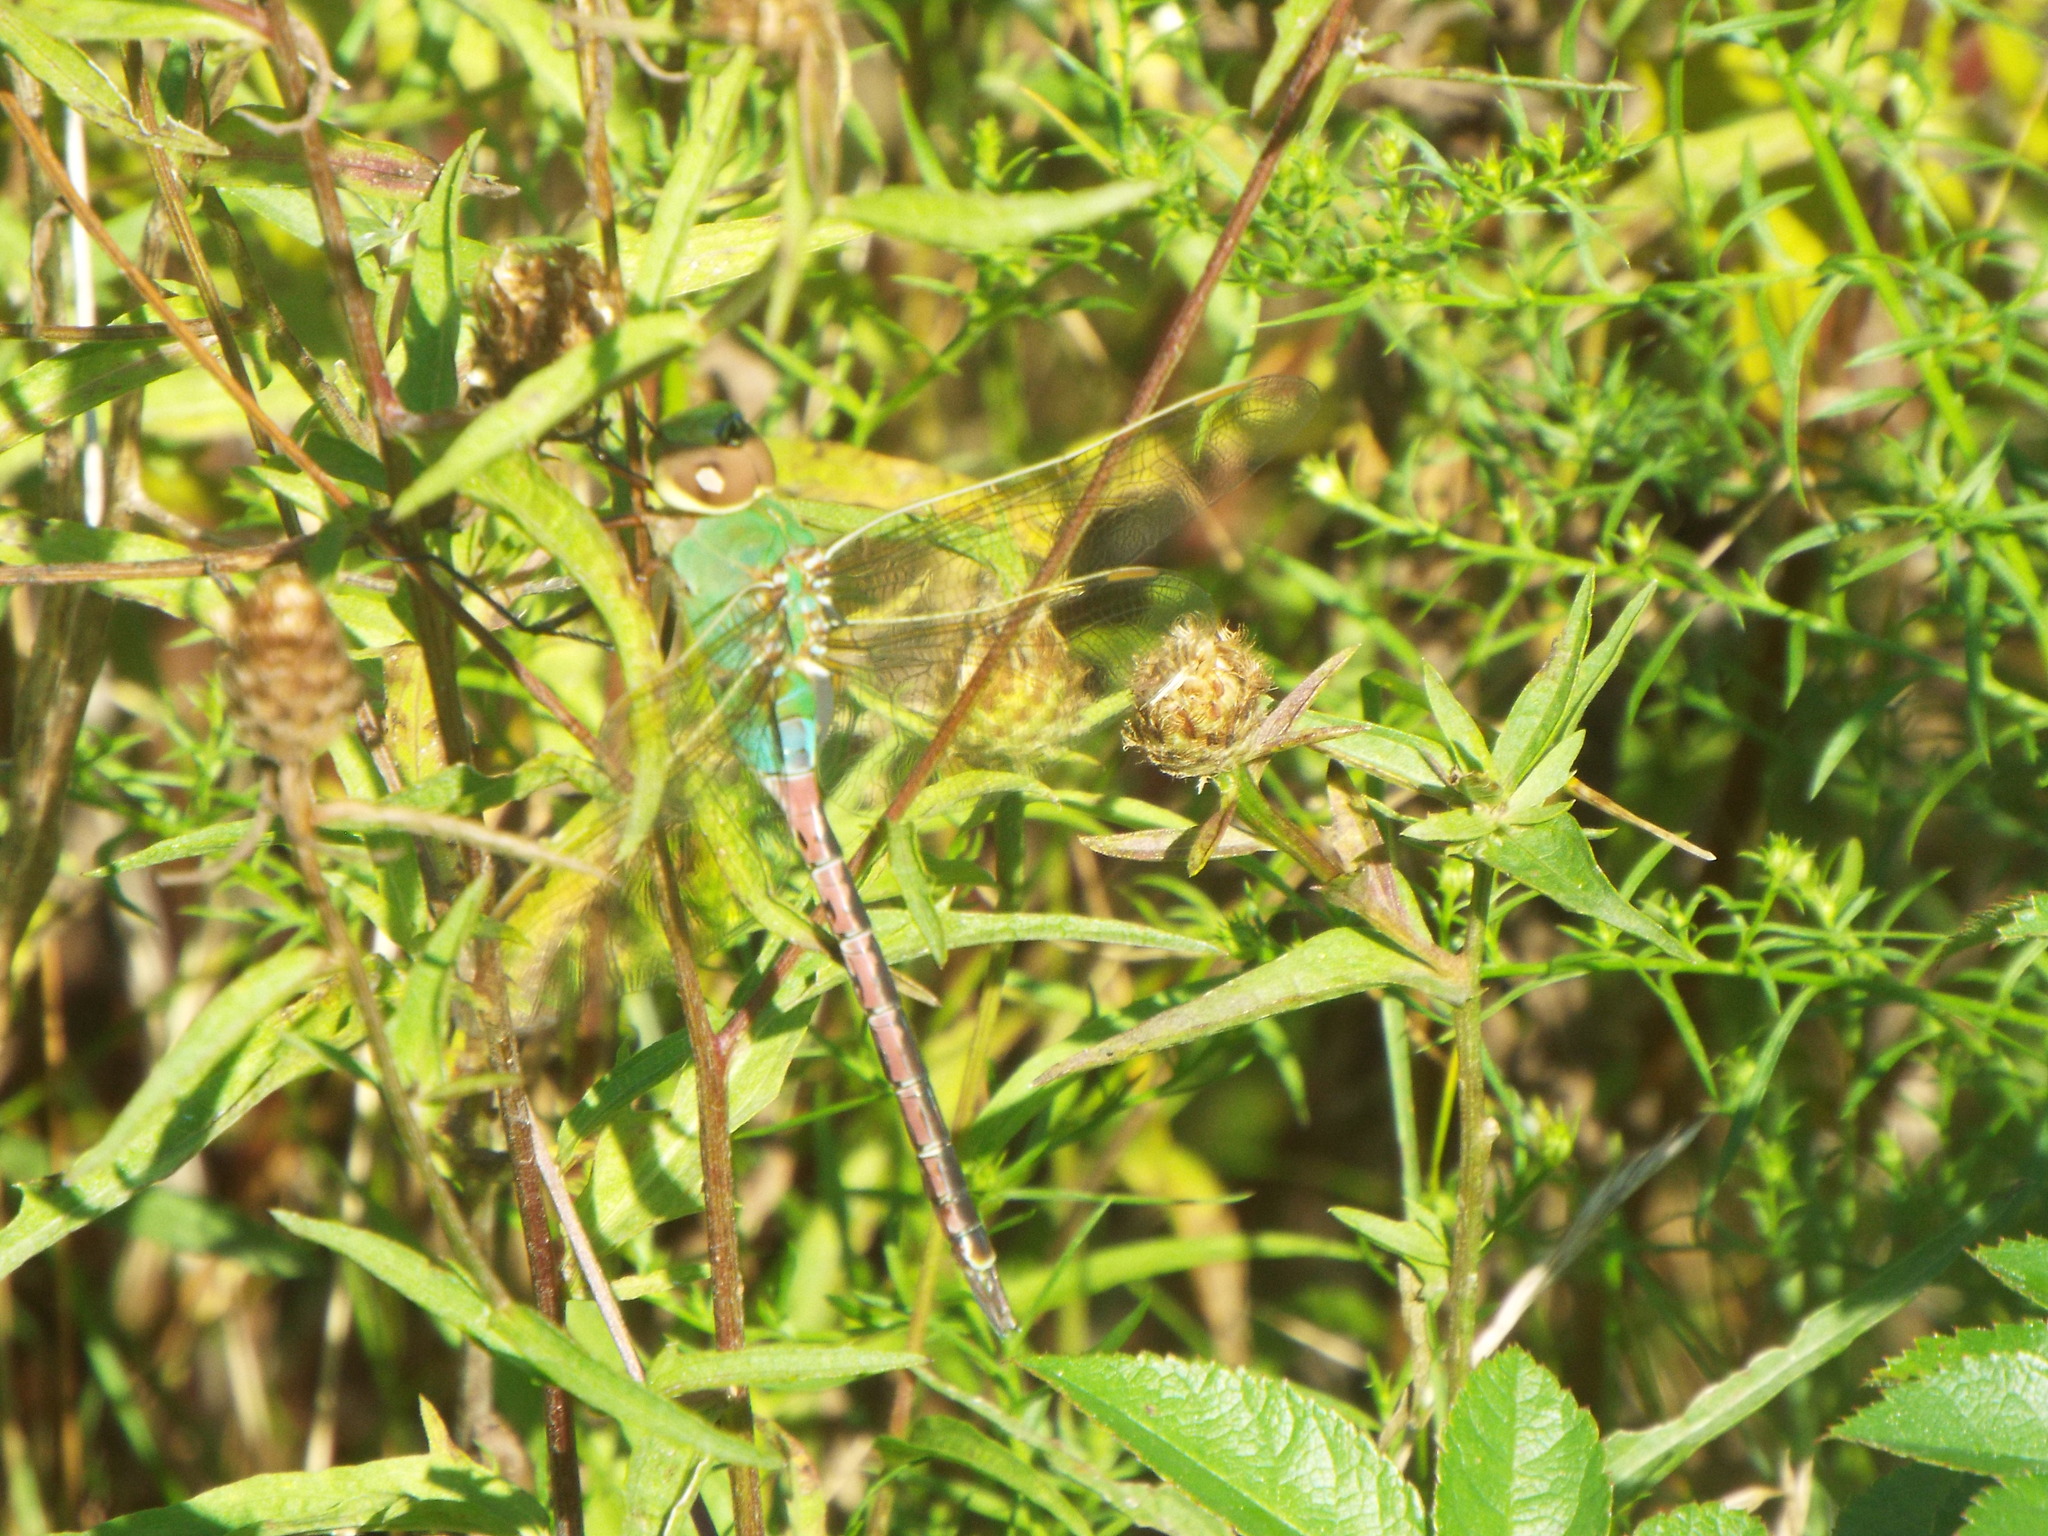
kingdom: Animalia
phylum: Arthropoda
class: Insecta
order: Odonata
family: Aeshnidae
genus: Anax
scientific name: Anax junius
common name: Common green darner
